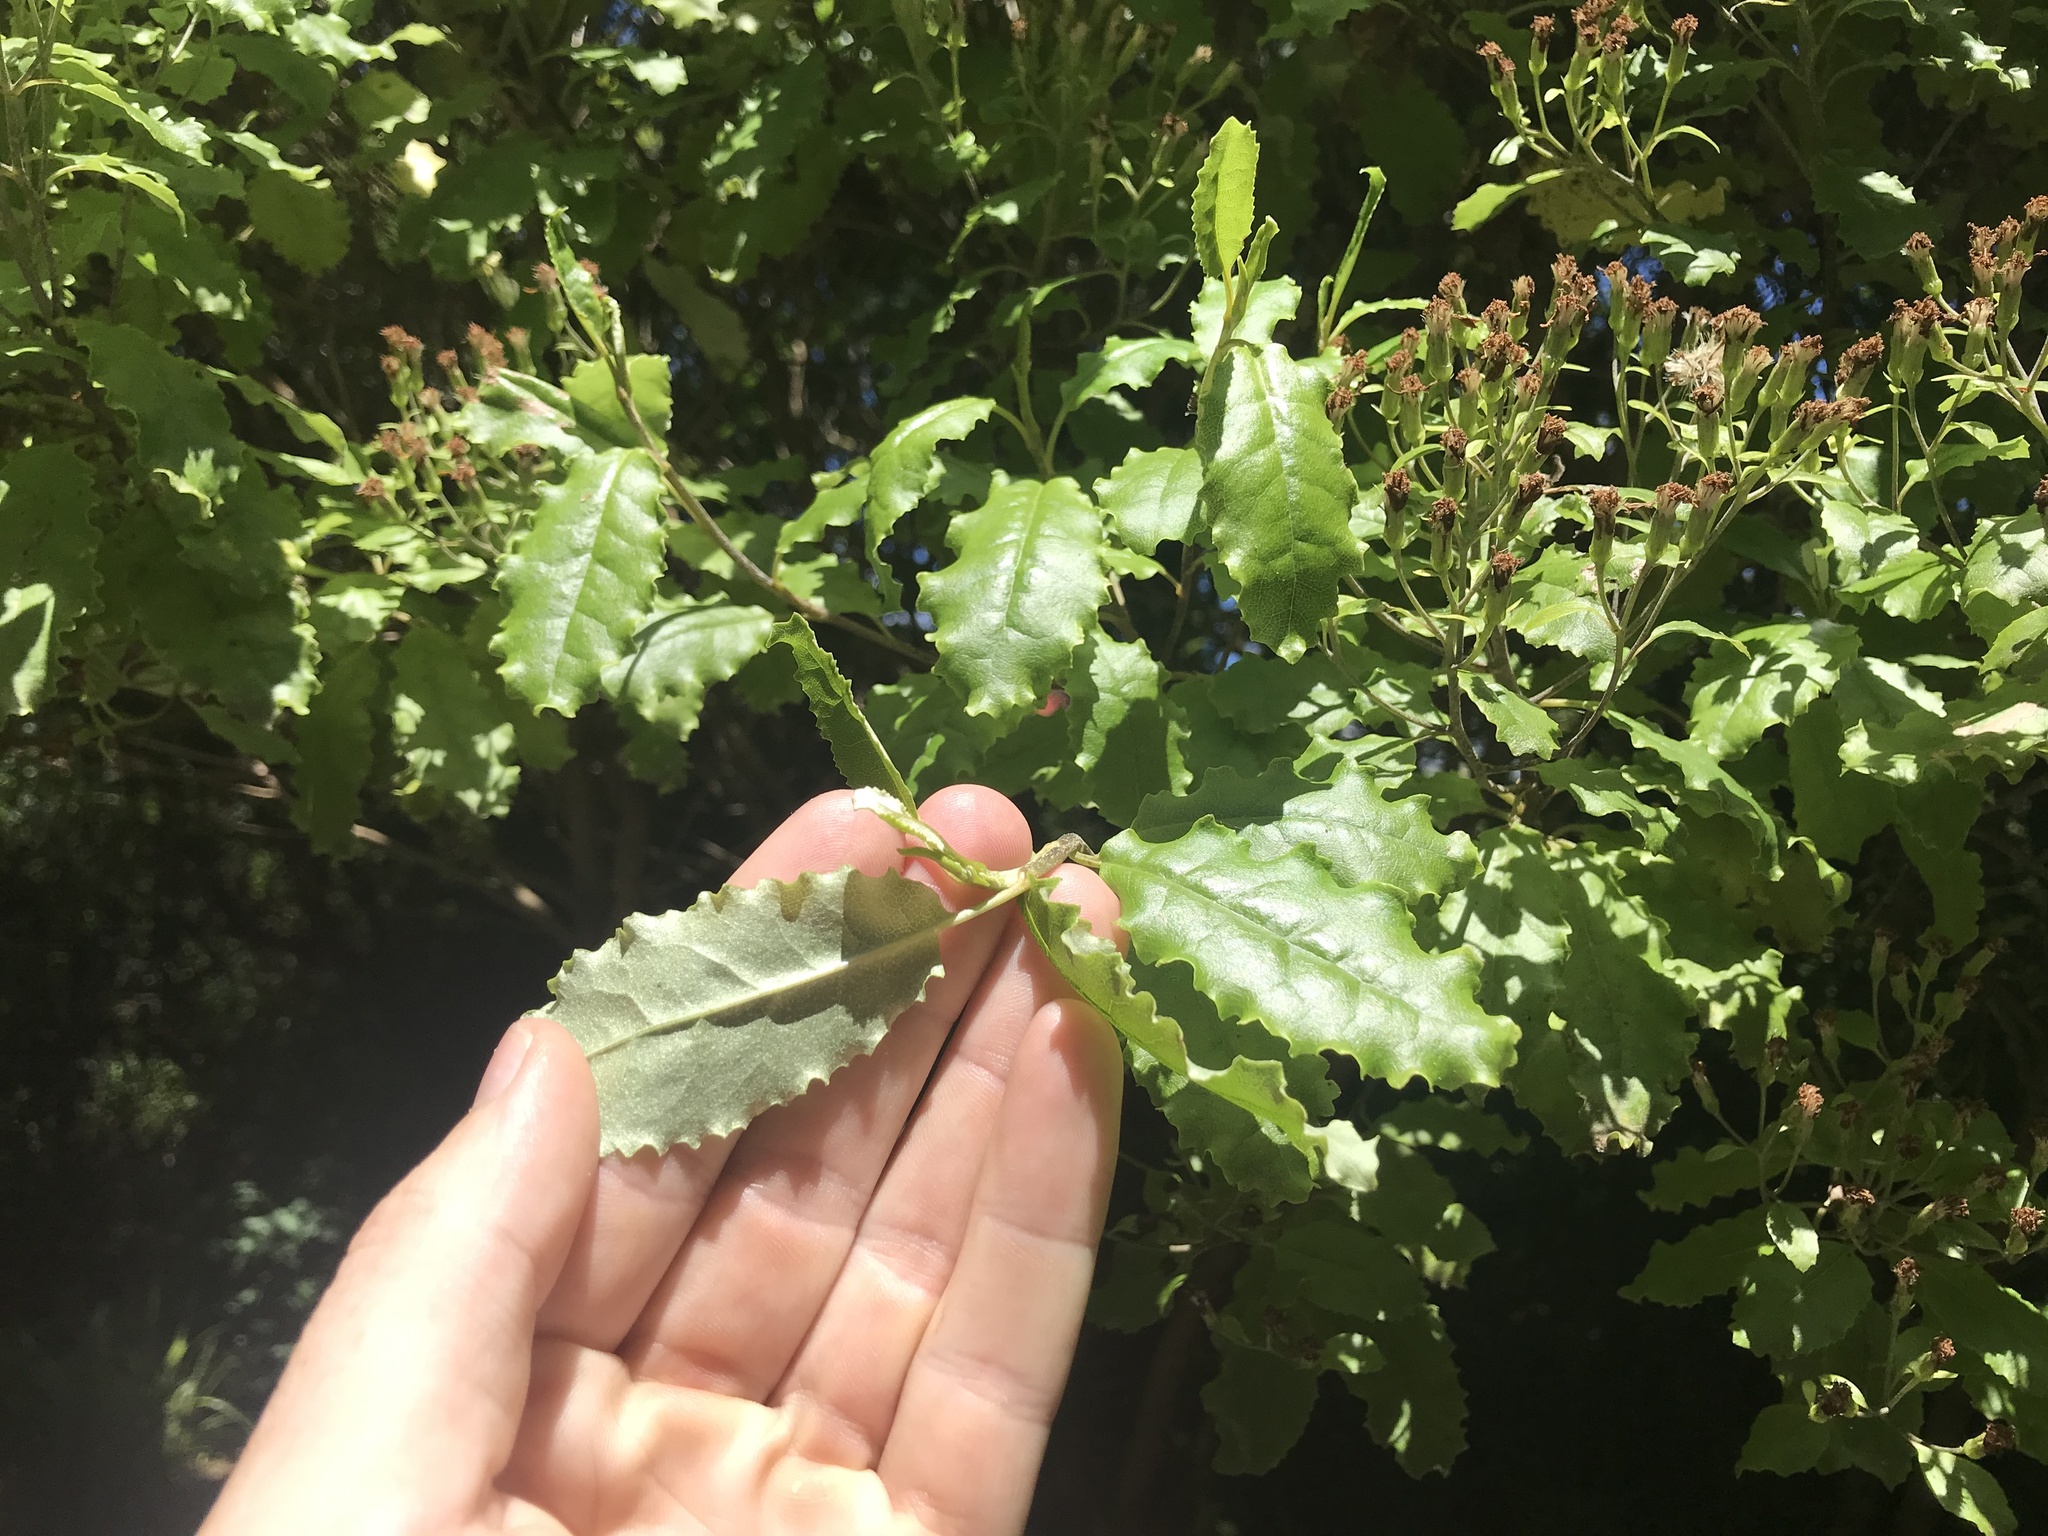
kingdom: Plantae
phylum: Tracheophyta
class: Magnoliopsida
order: Asterales
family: Asteraceae
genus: Brachyglottis
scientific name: Brachyglottis perdicioides
